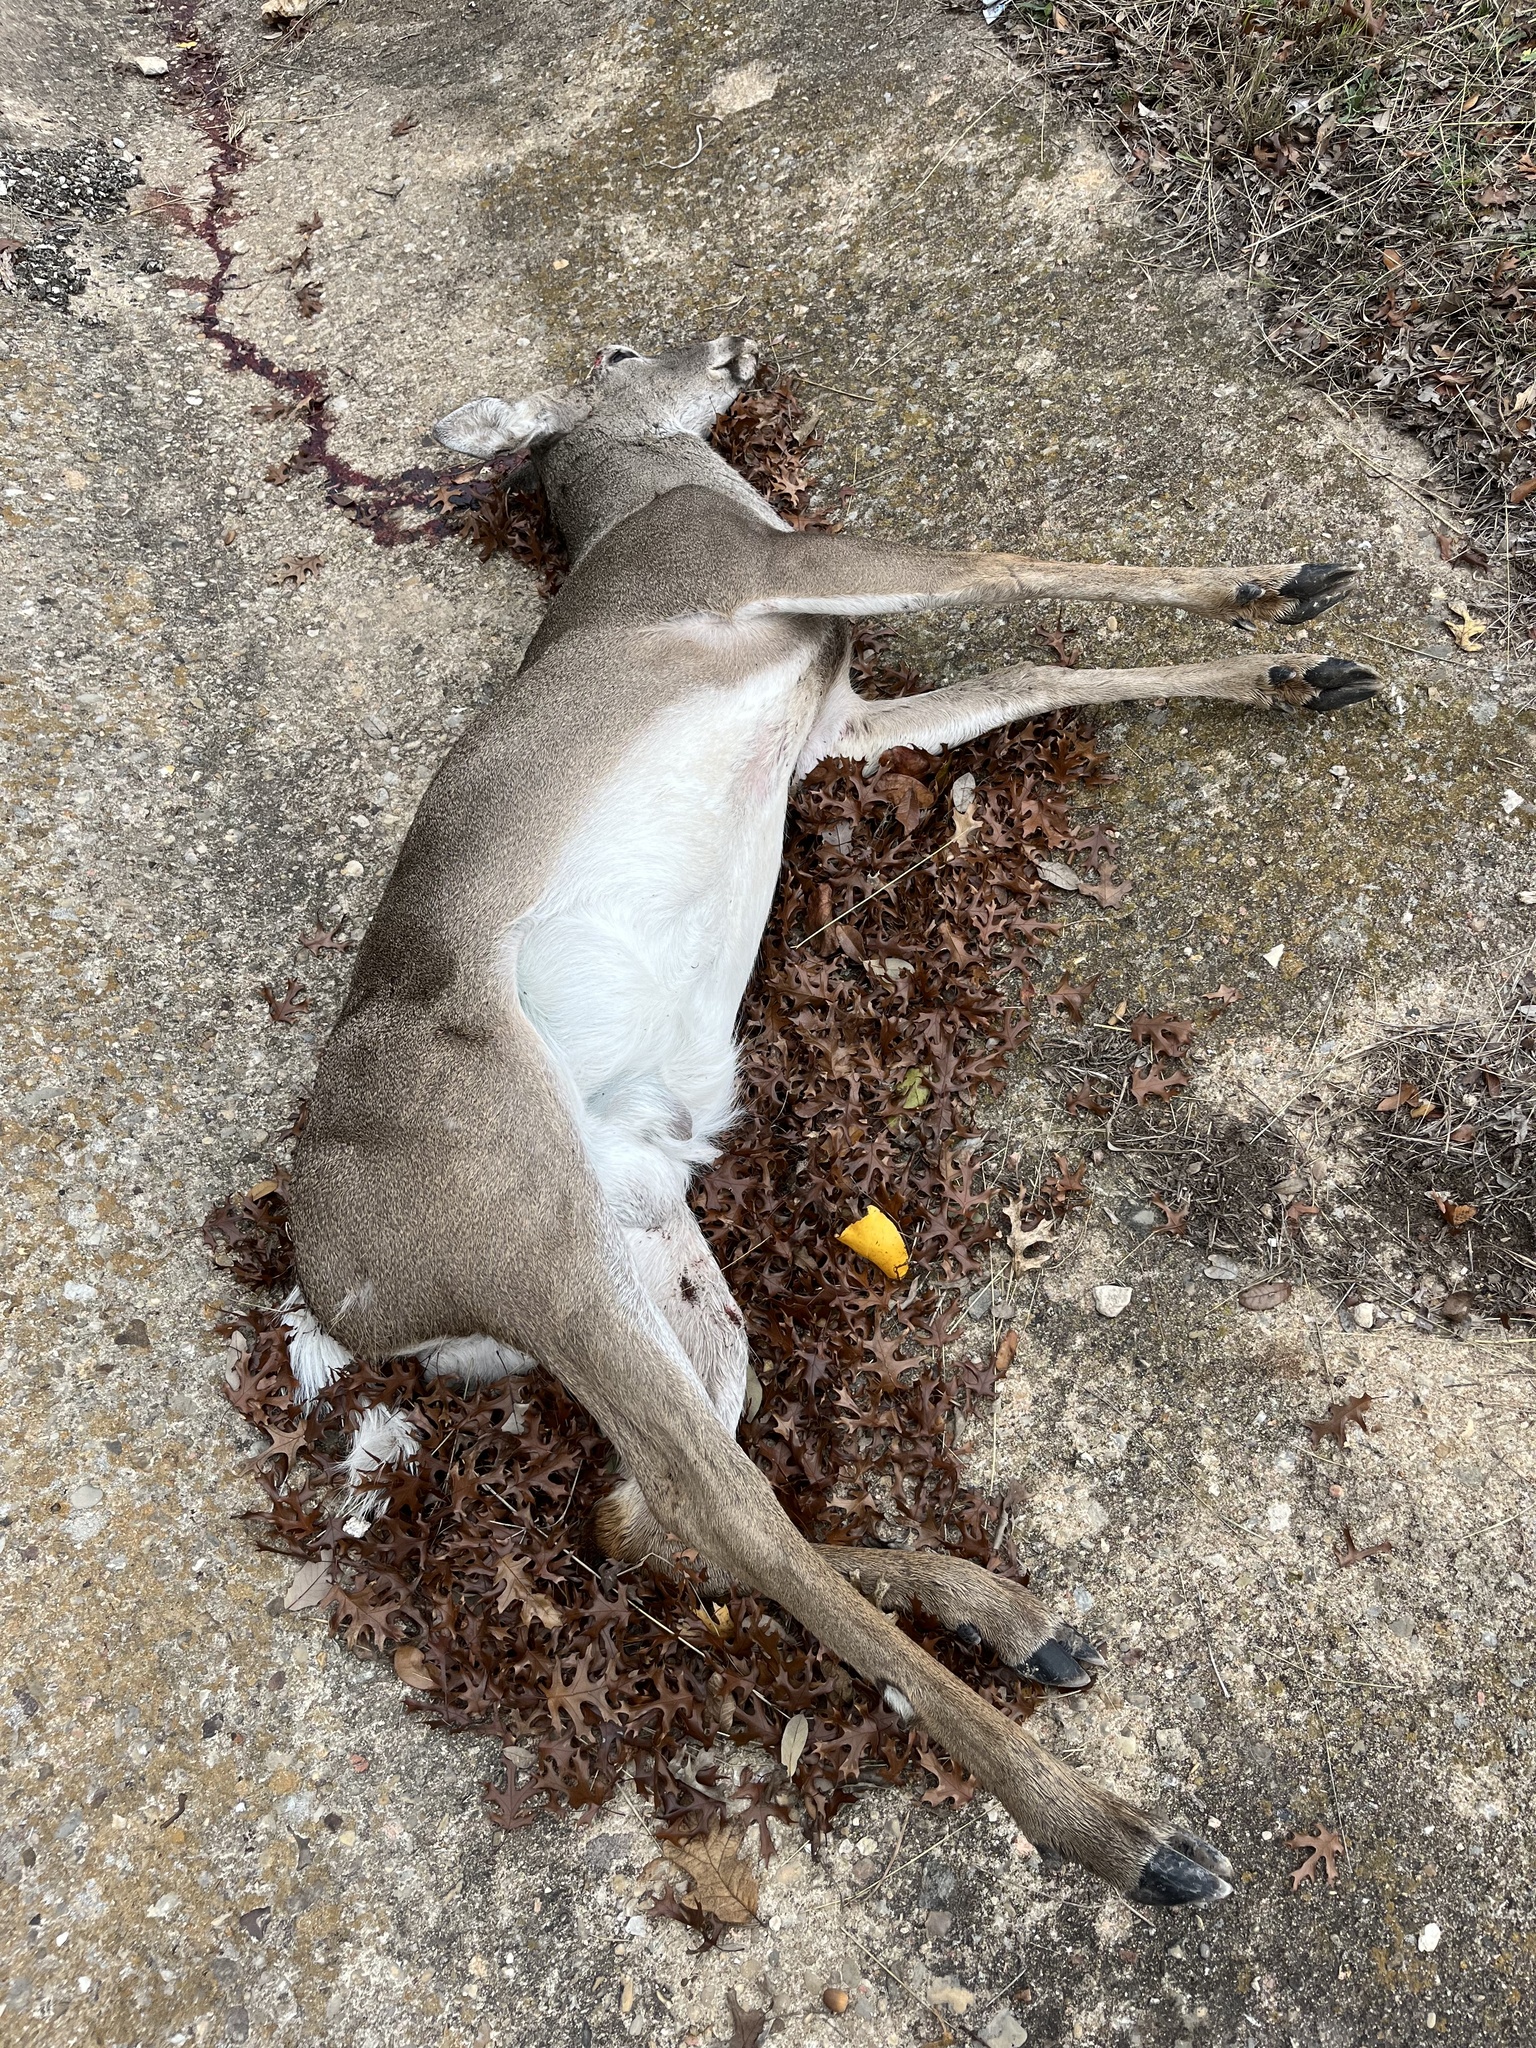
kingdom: Animalia
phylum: Chordata
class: Mammalia
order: Artiodactyla
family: Cervidae
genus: Odocoileus
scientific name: Odocoileus virginianus
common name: White-tailed deer
